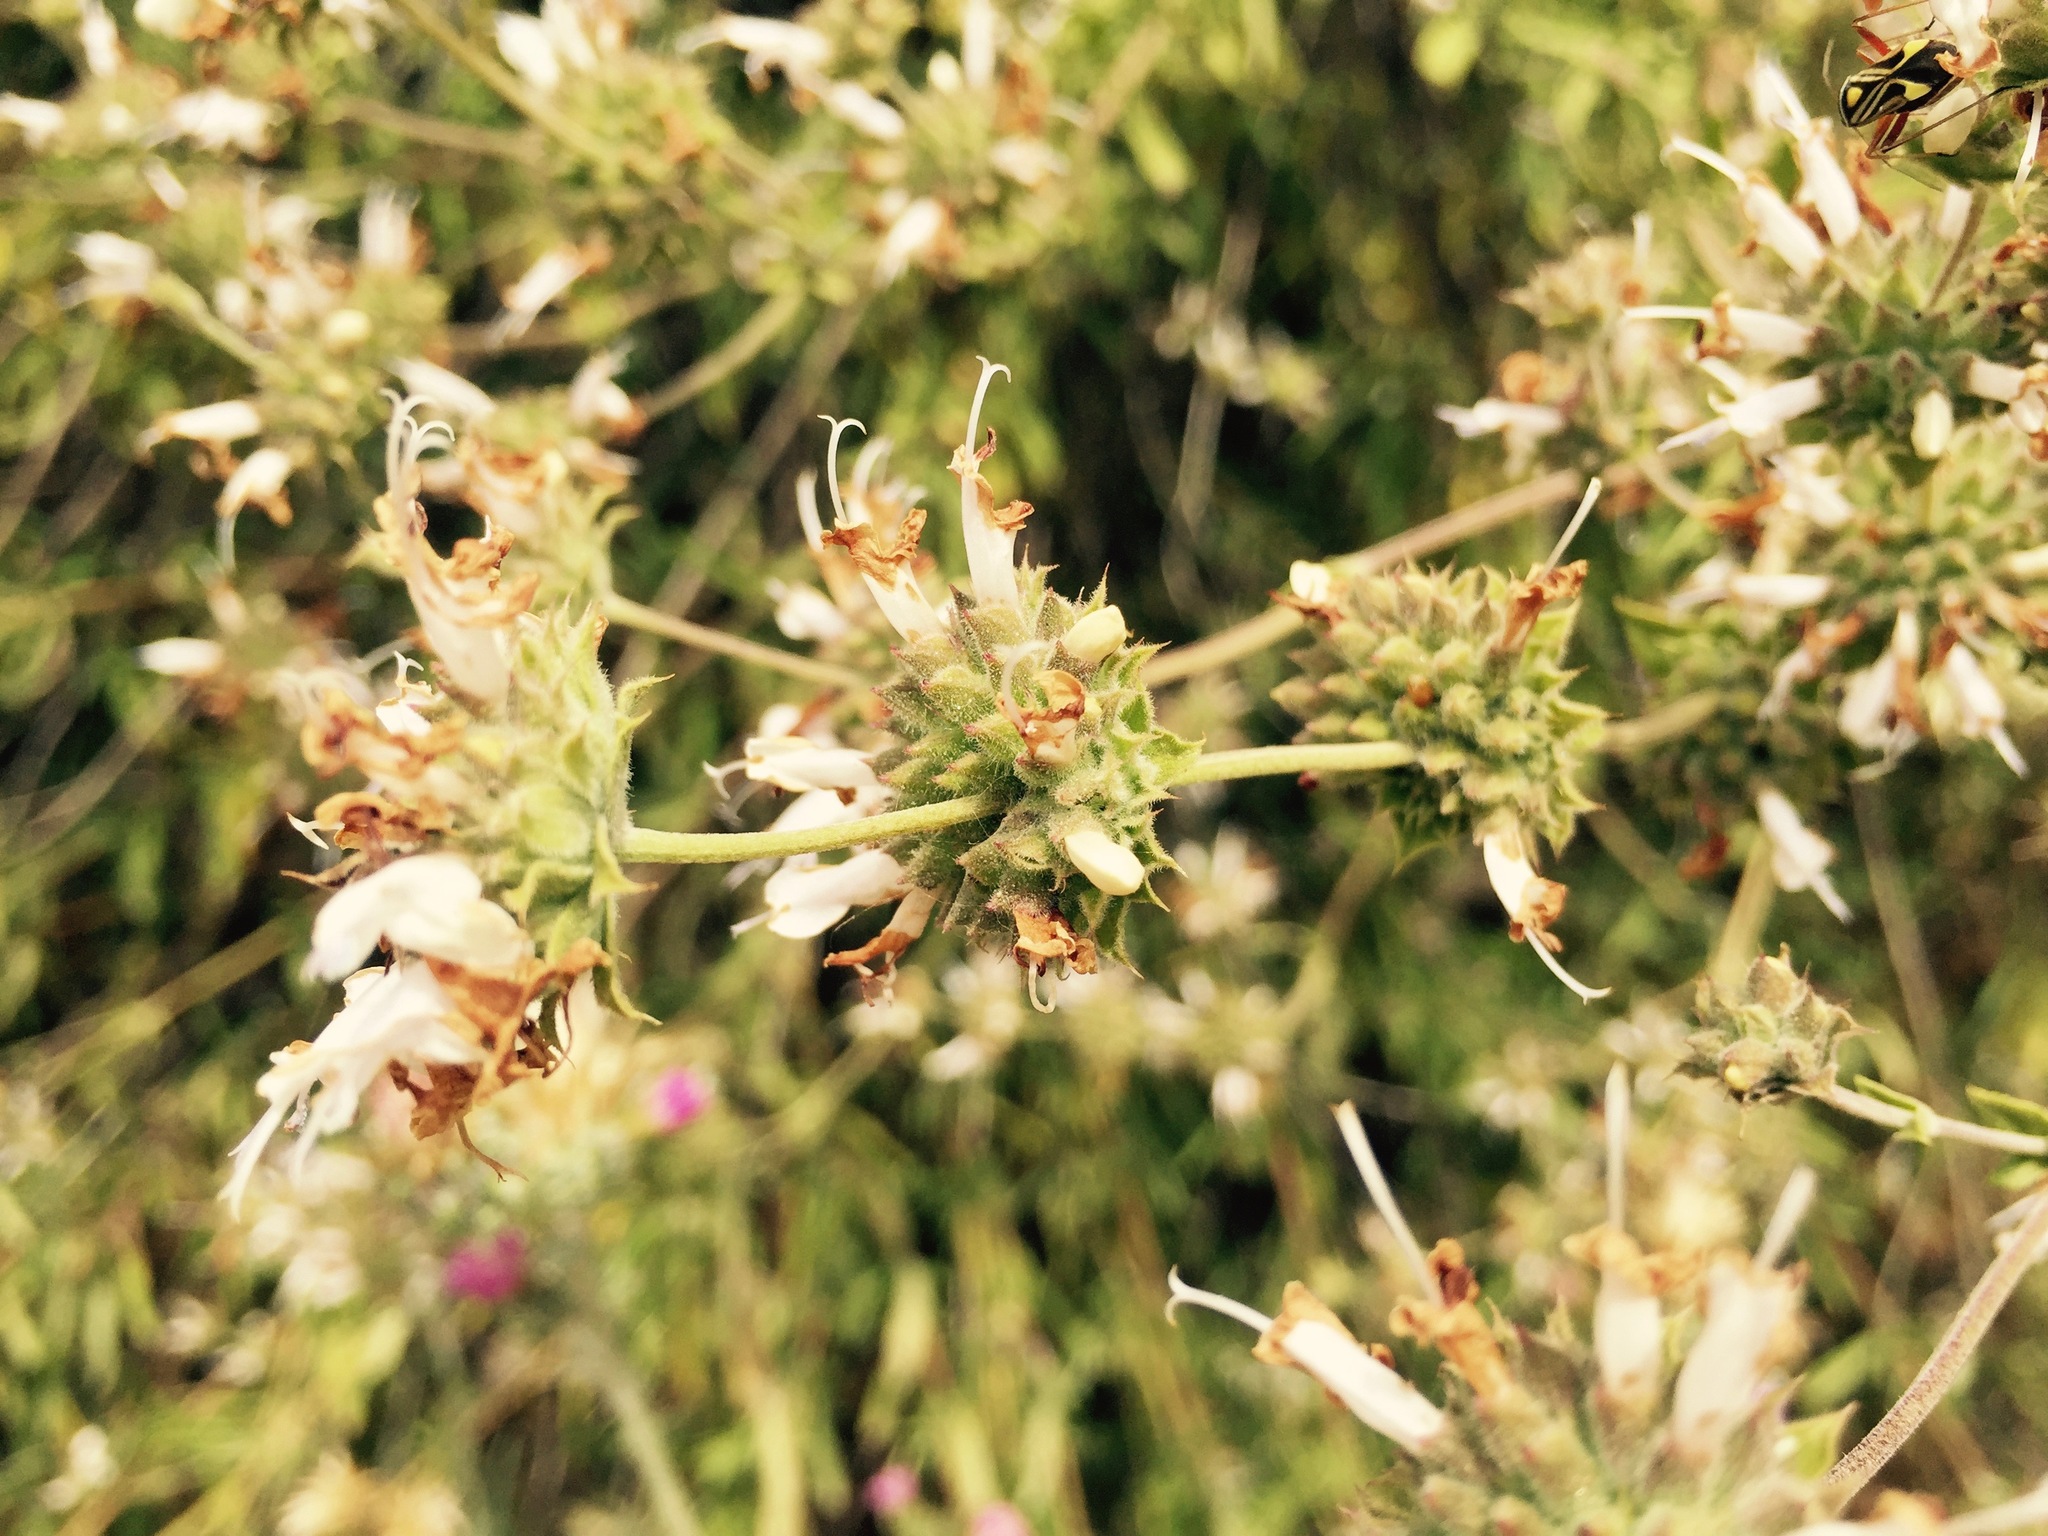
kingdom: Plantae
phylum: Tracheophyta
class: Magnoliopsida
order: Lamiales
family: Lamiaceae
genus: Salvia
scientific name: Salvia mellifera
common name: Black sage
